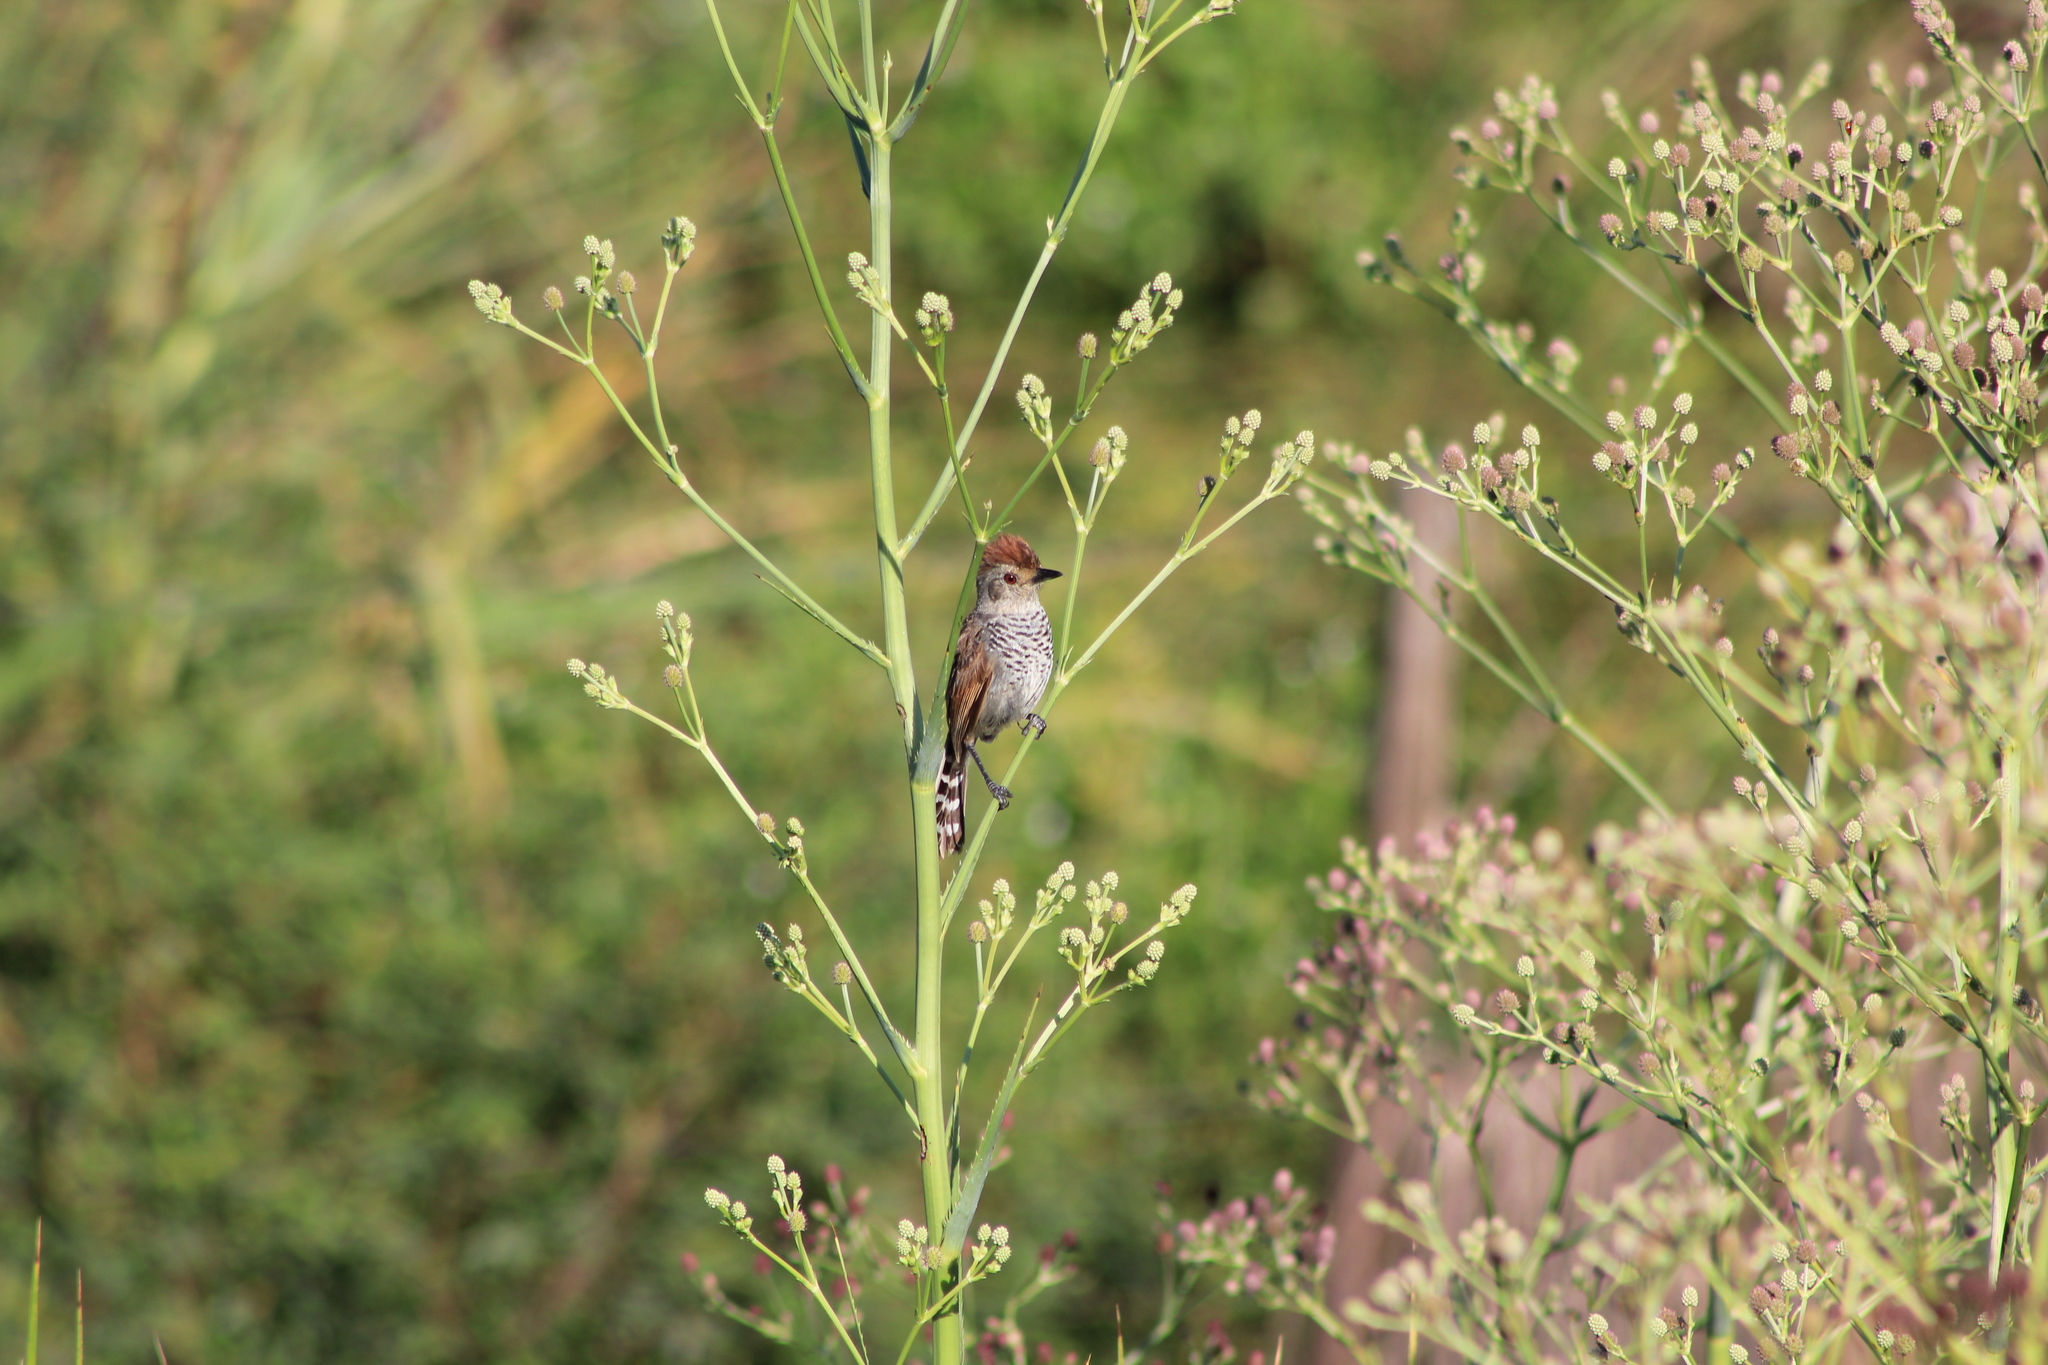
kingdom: Animalia
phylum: Chordata
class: Aves
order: Passeriformes
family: Thamnophilidae
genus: Thamnophilus
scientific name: Thamnophilus ruficapillus
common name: Rufous-capped antshrike
